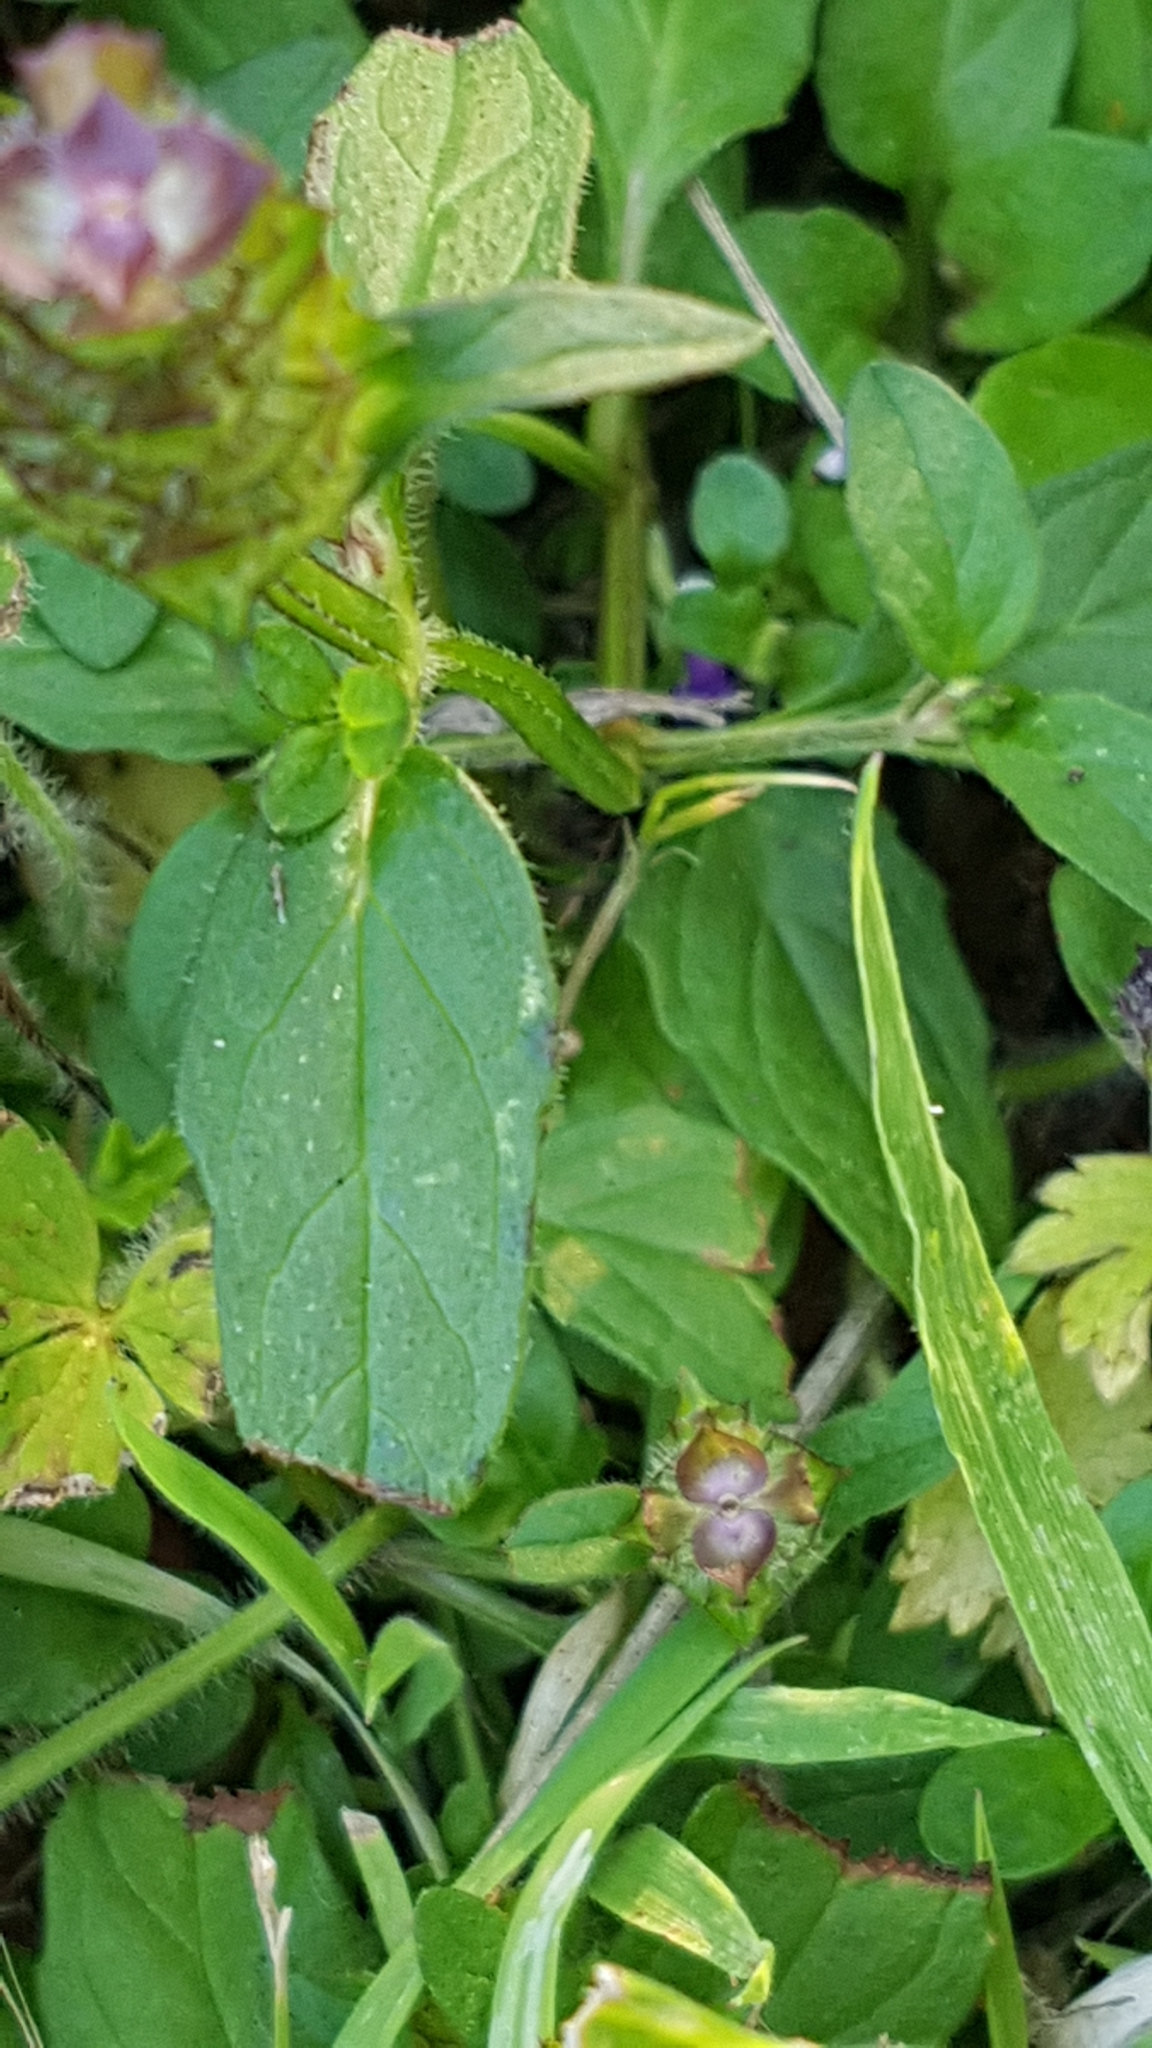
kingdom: Plantae
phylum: Tracheophyta
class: Magnoliopsida
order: Lamiales
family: Lamiaceae
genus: Prunella
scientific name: Prunella vulgaris
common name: Heal-all
